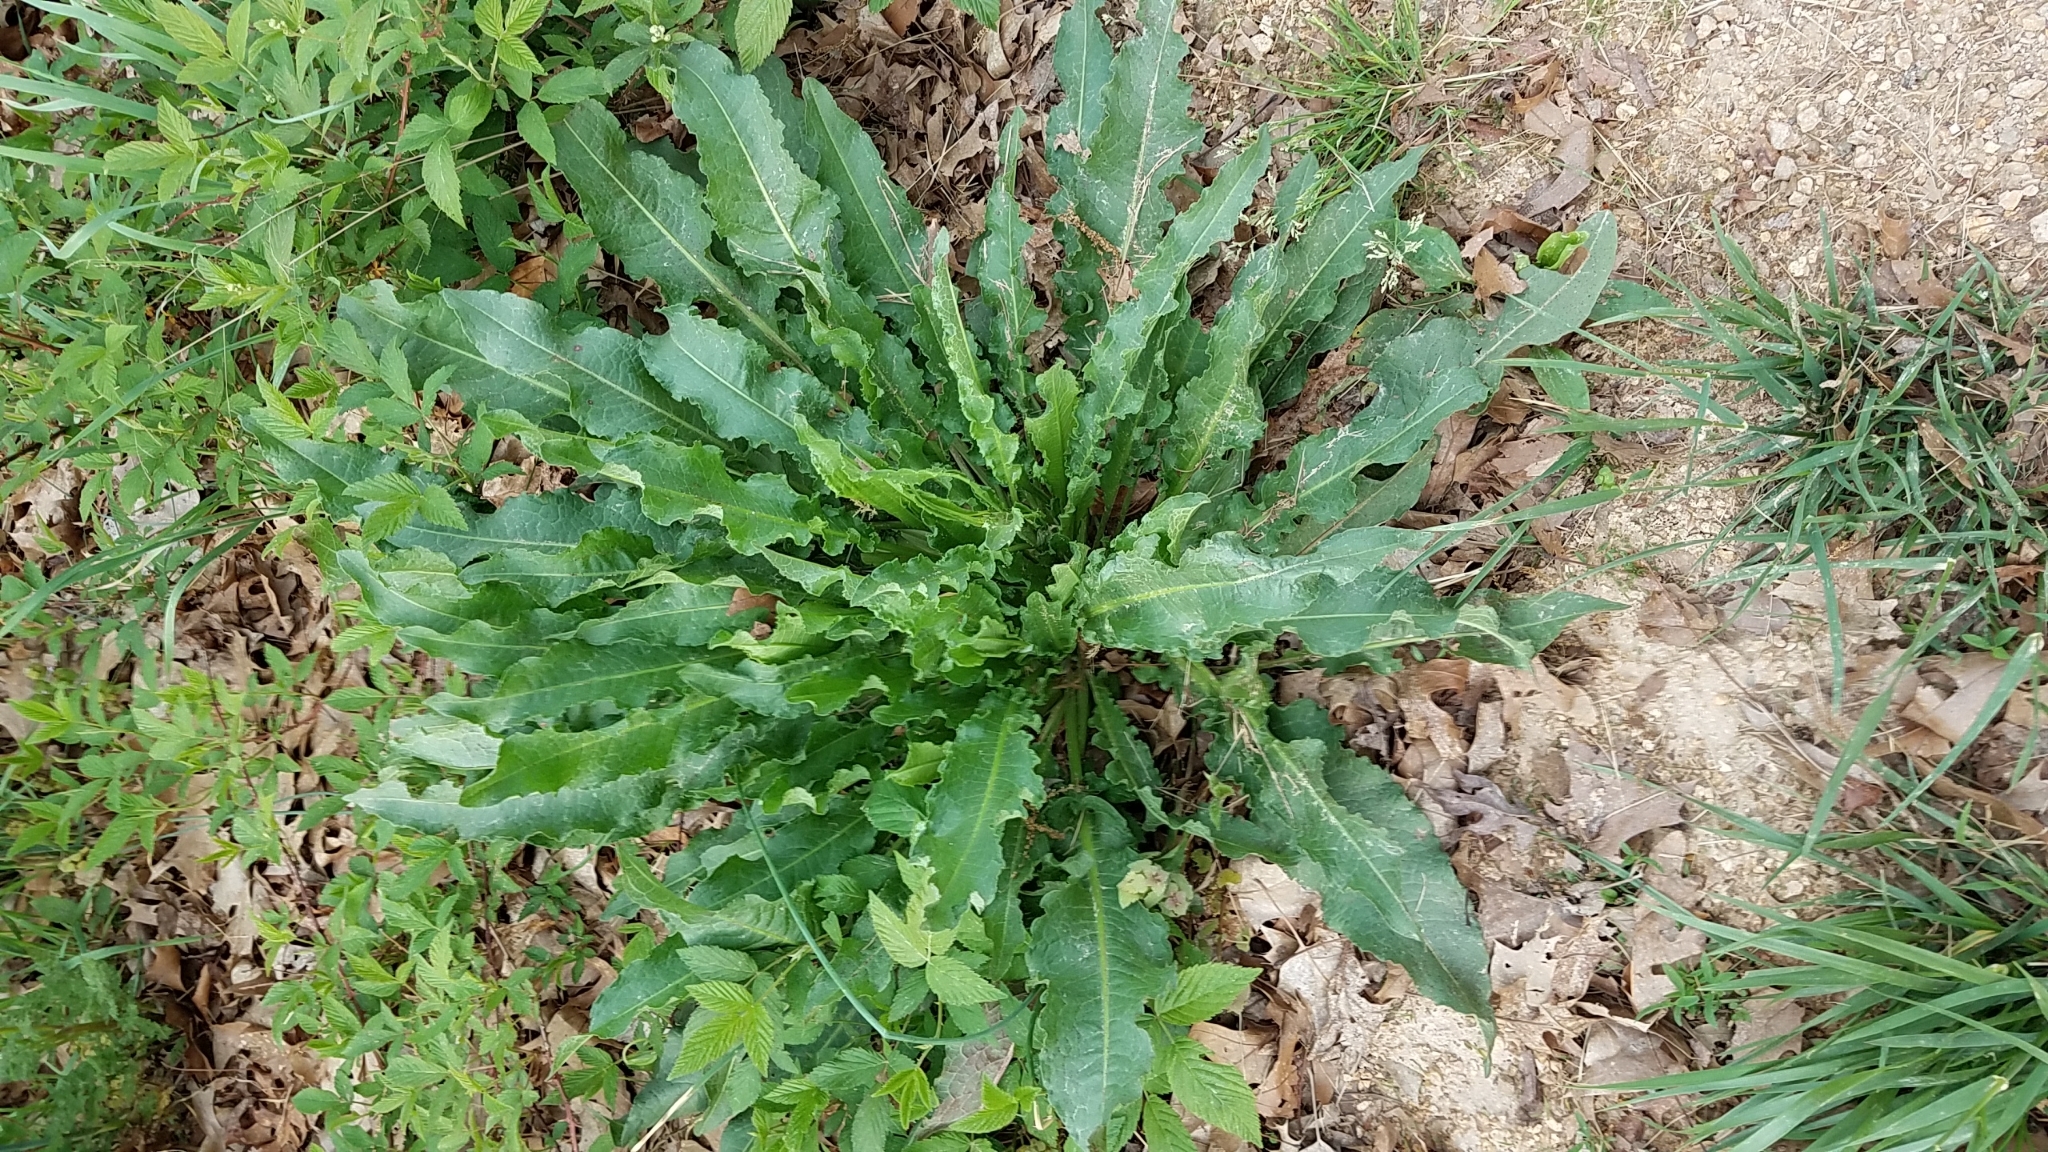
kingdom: Plantae
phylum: Tracheophyta
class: Magnoliopsida
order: Caryophyllales
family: Polygonaceae
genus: Rumex
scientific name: Rumex crispus
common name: Curled dock
